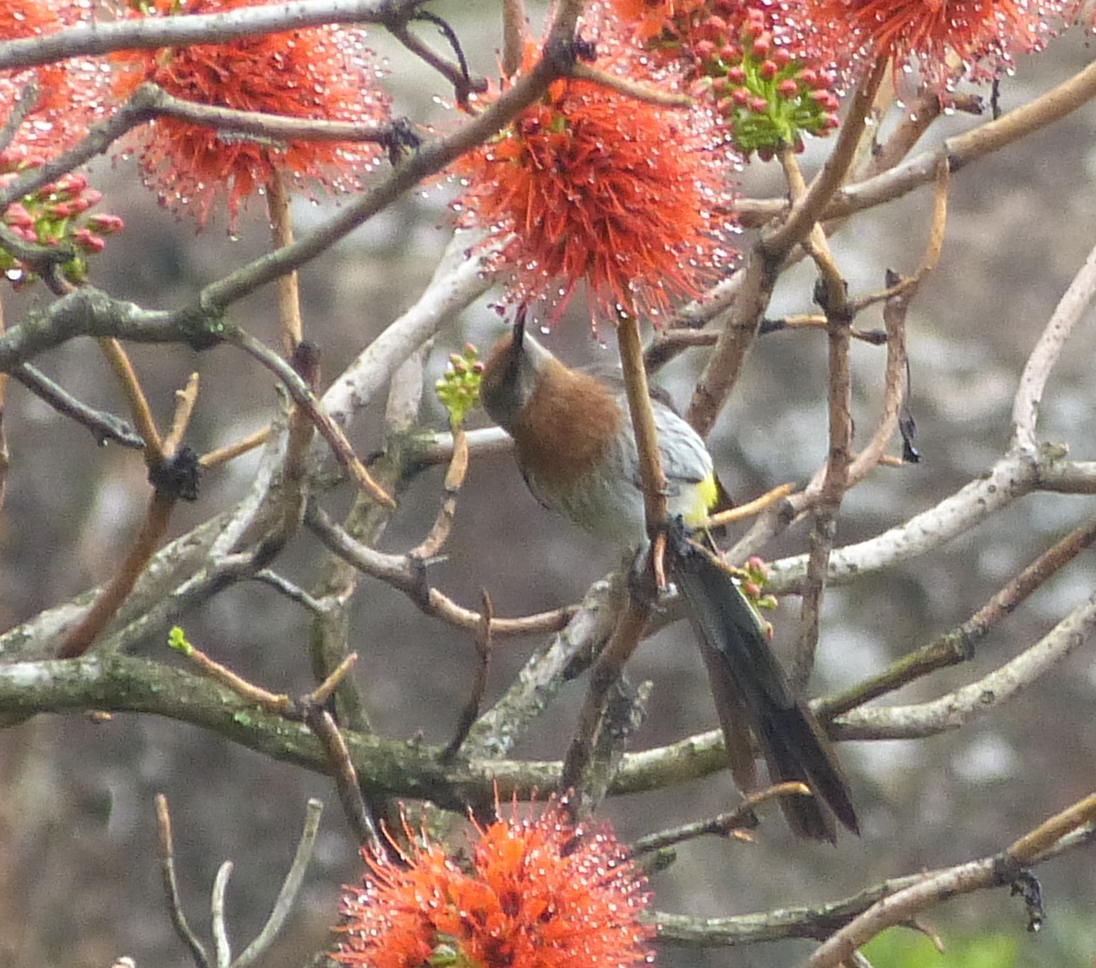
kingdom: Plantae
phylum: Tracheophyta
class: Magnoliopsida
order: Geraniales
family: Francoaceae
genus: Greyia
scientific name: Greyia sutherlandii
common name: Glossy bottlebrush
